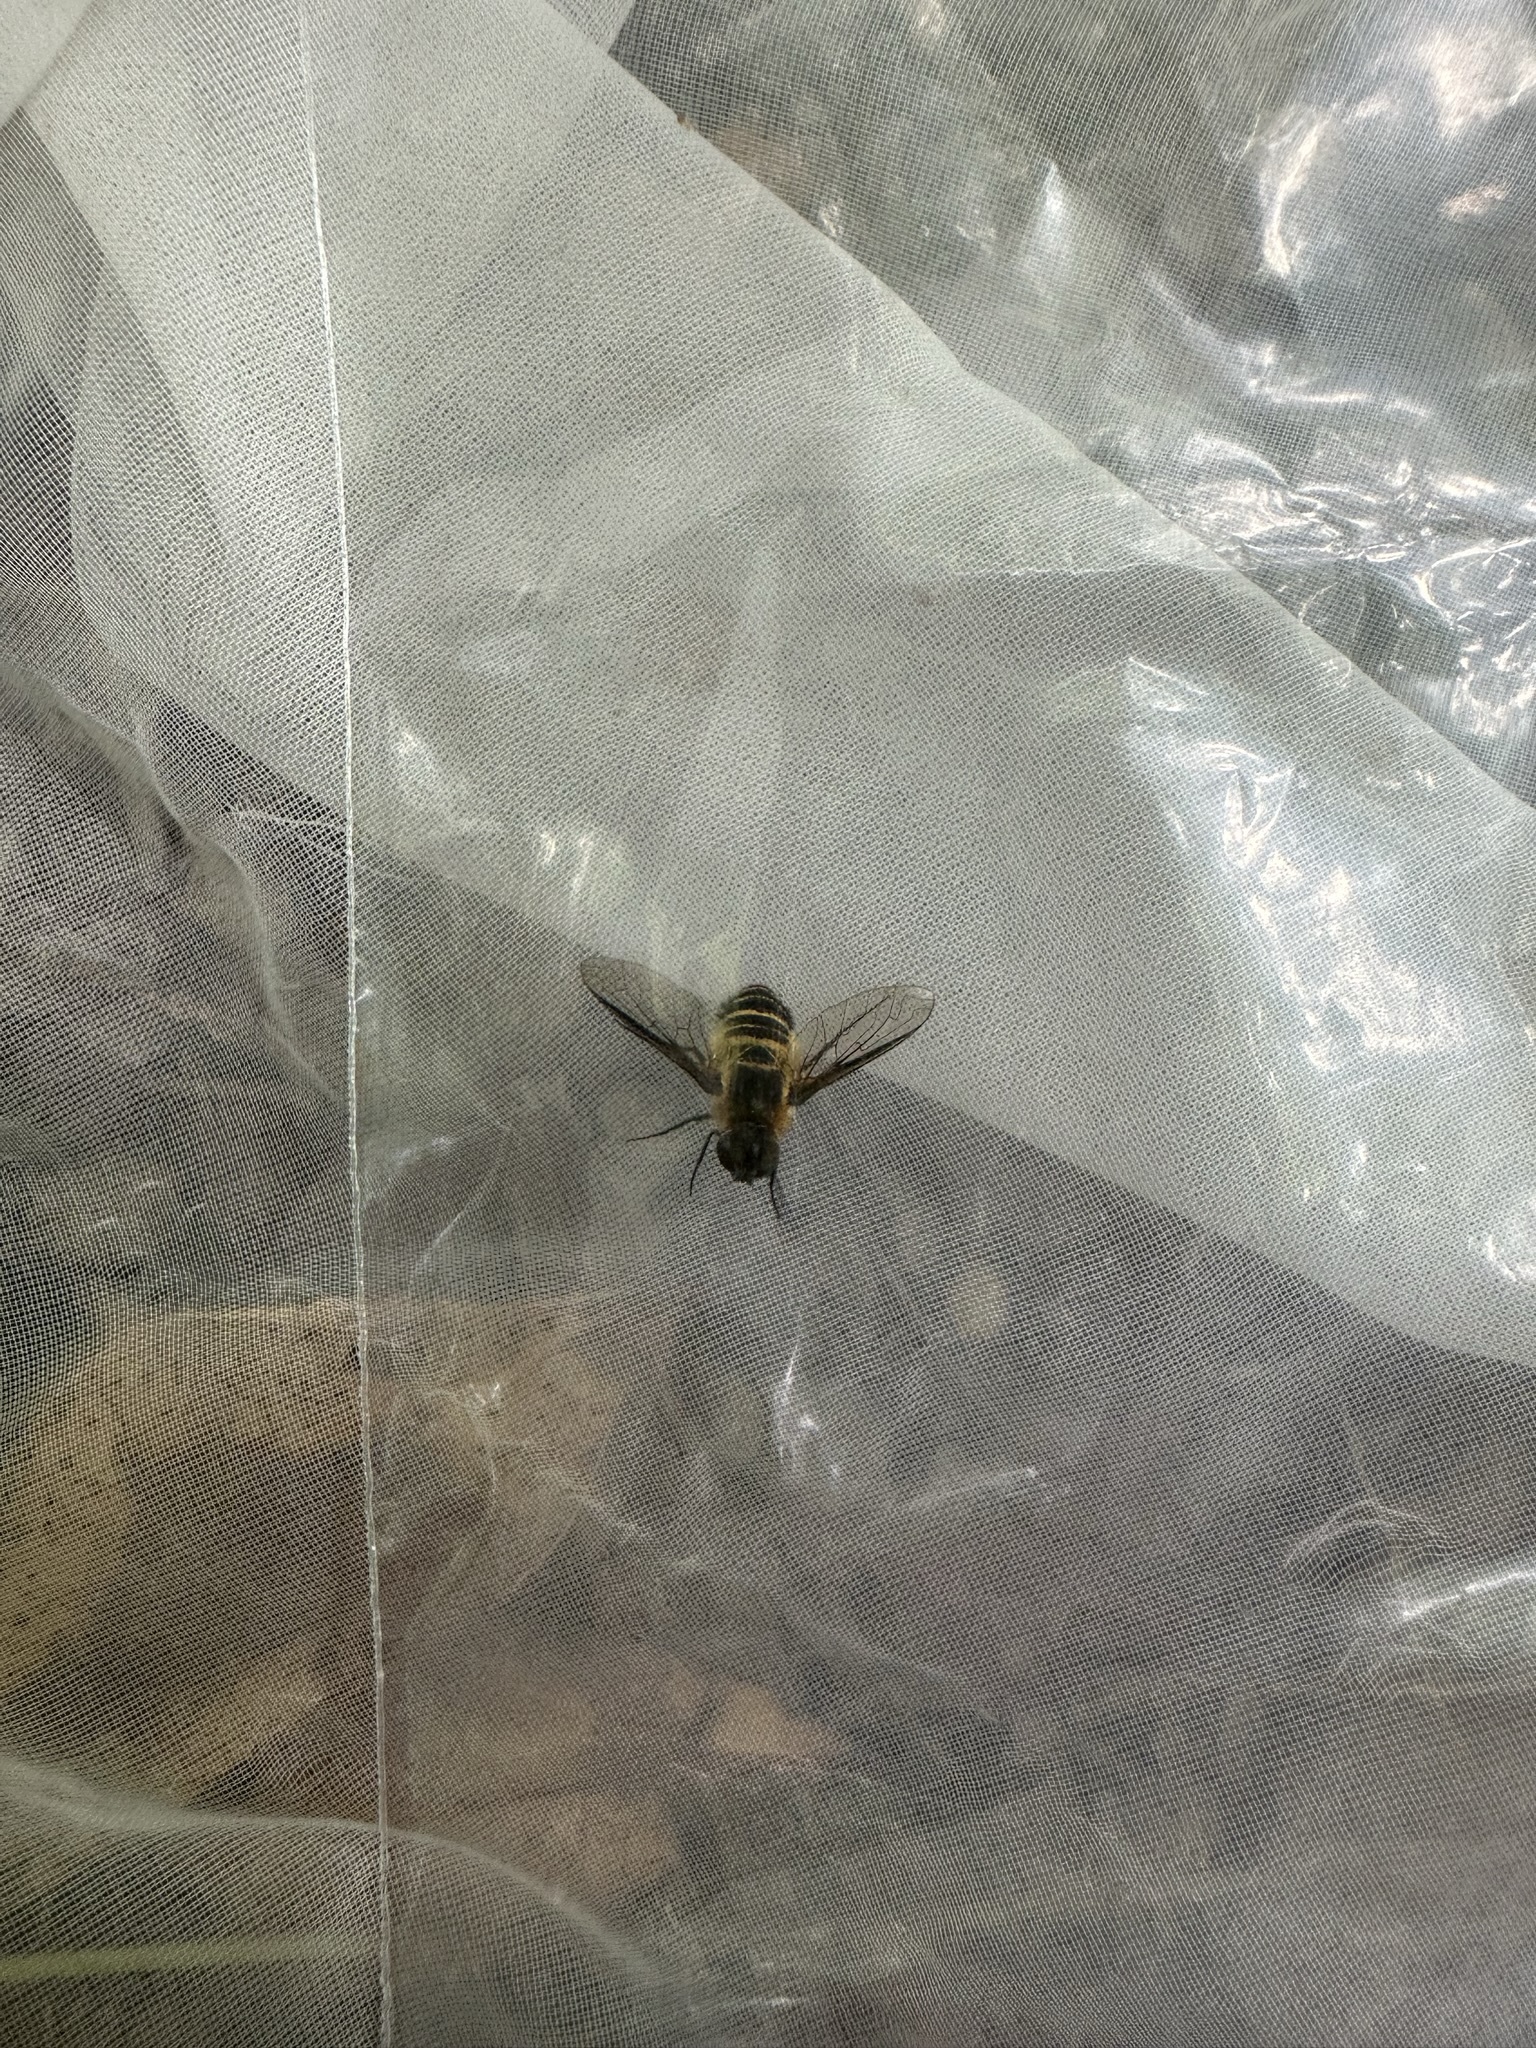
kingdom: Animalia
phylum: Arthropoda
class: Insecta
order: Diptera
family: Bombyliidae
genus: Villa
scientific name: Villa limbata
